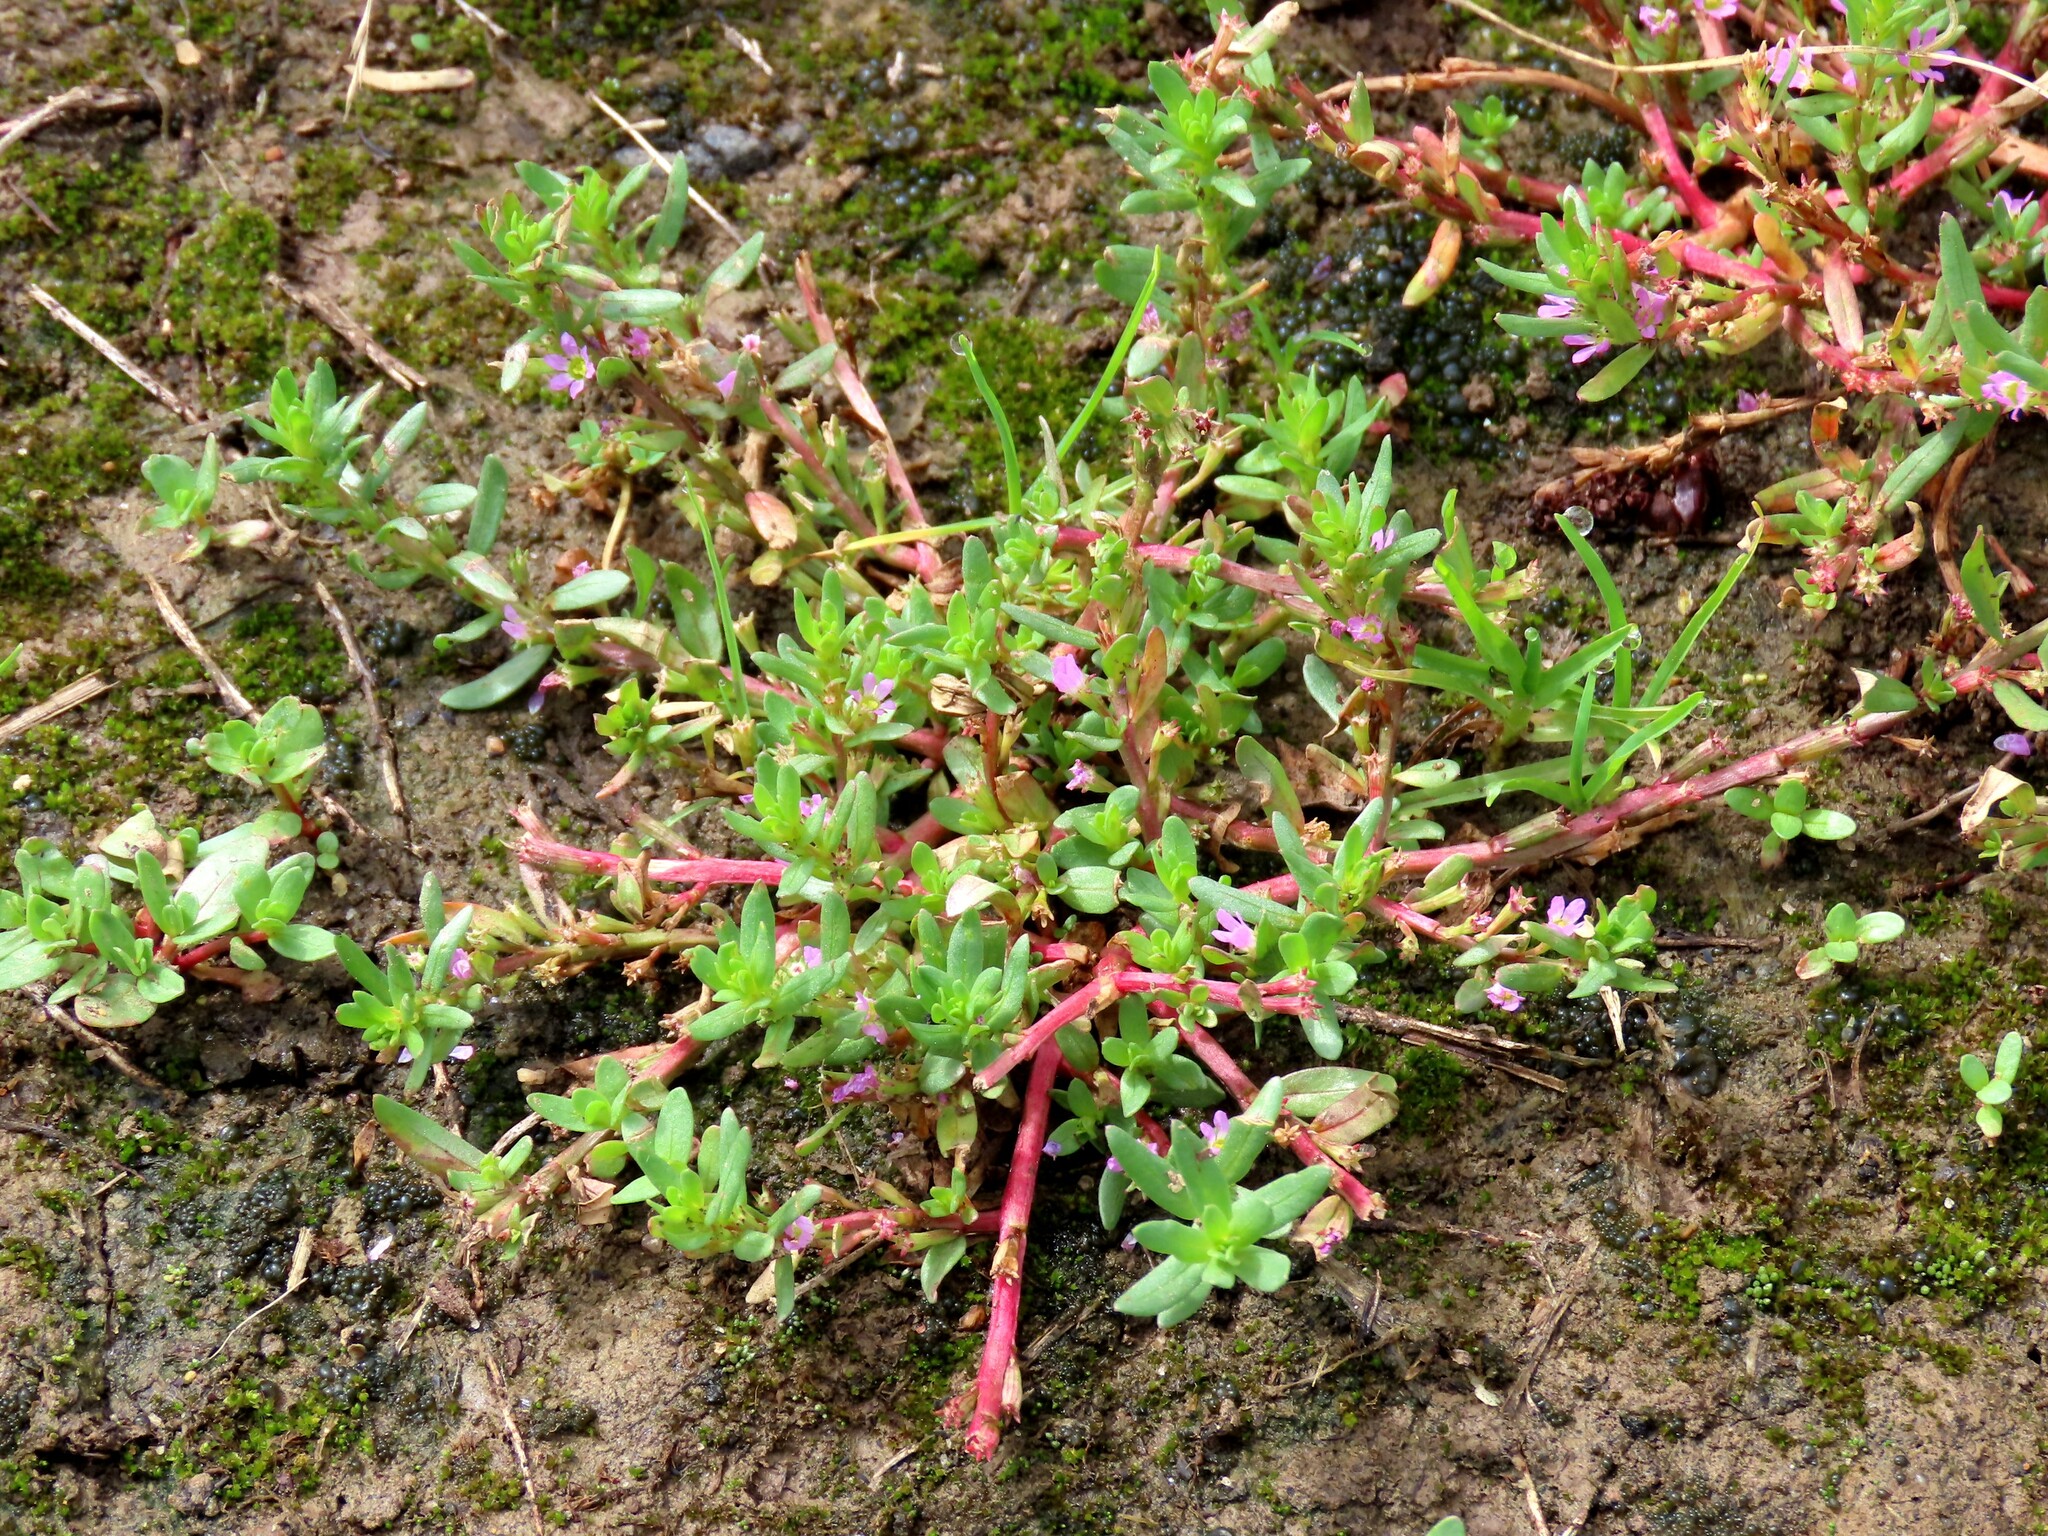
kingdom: Plantae
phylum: Tracheophyta
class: Magnoliopsida
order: Myrtales
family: Lythraceae
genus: Lythrum
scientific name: Lythrum hyssopifolia
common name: Grass-poly
